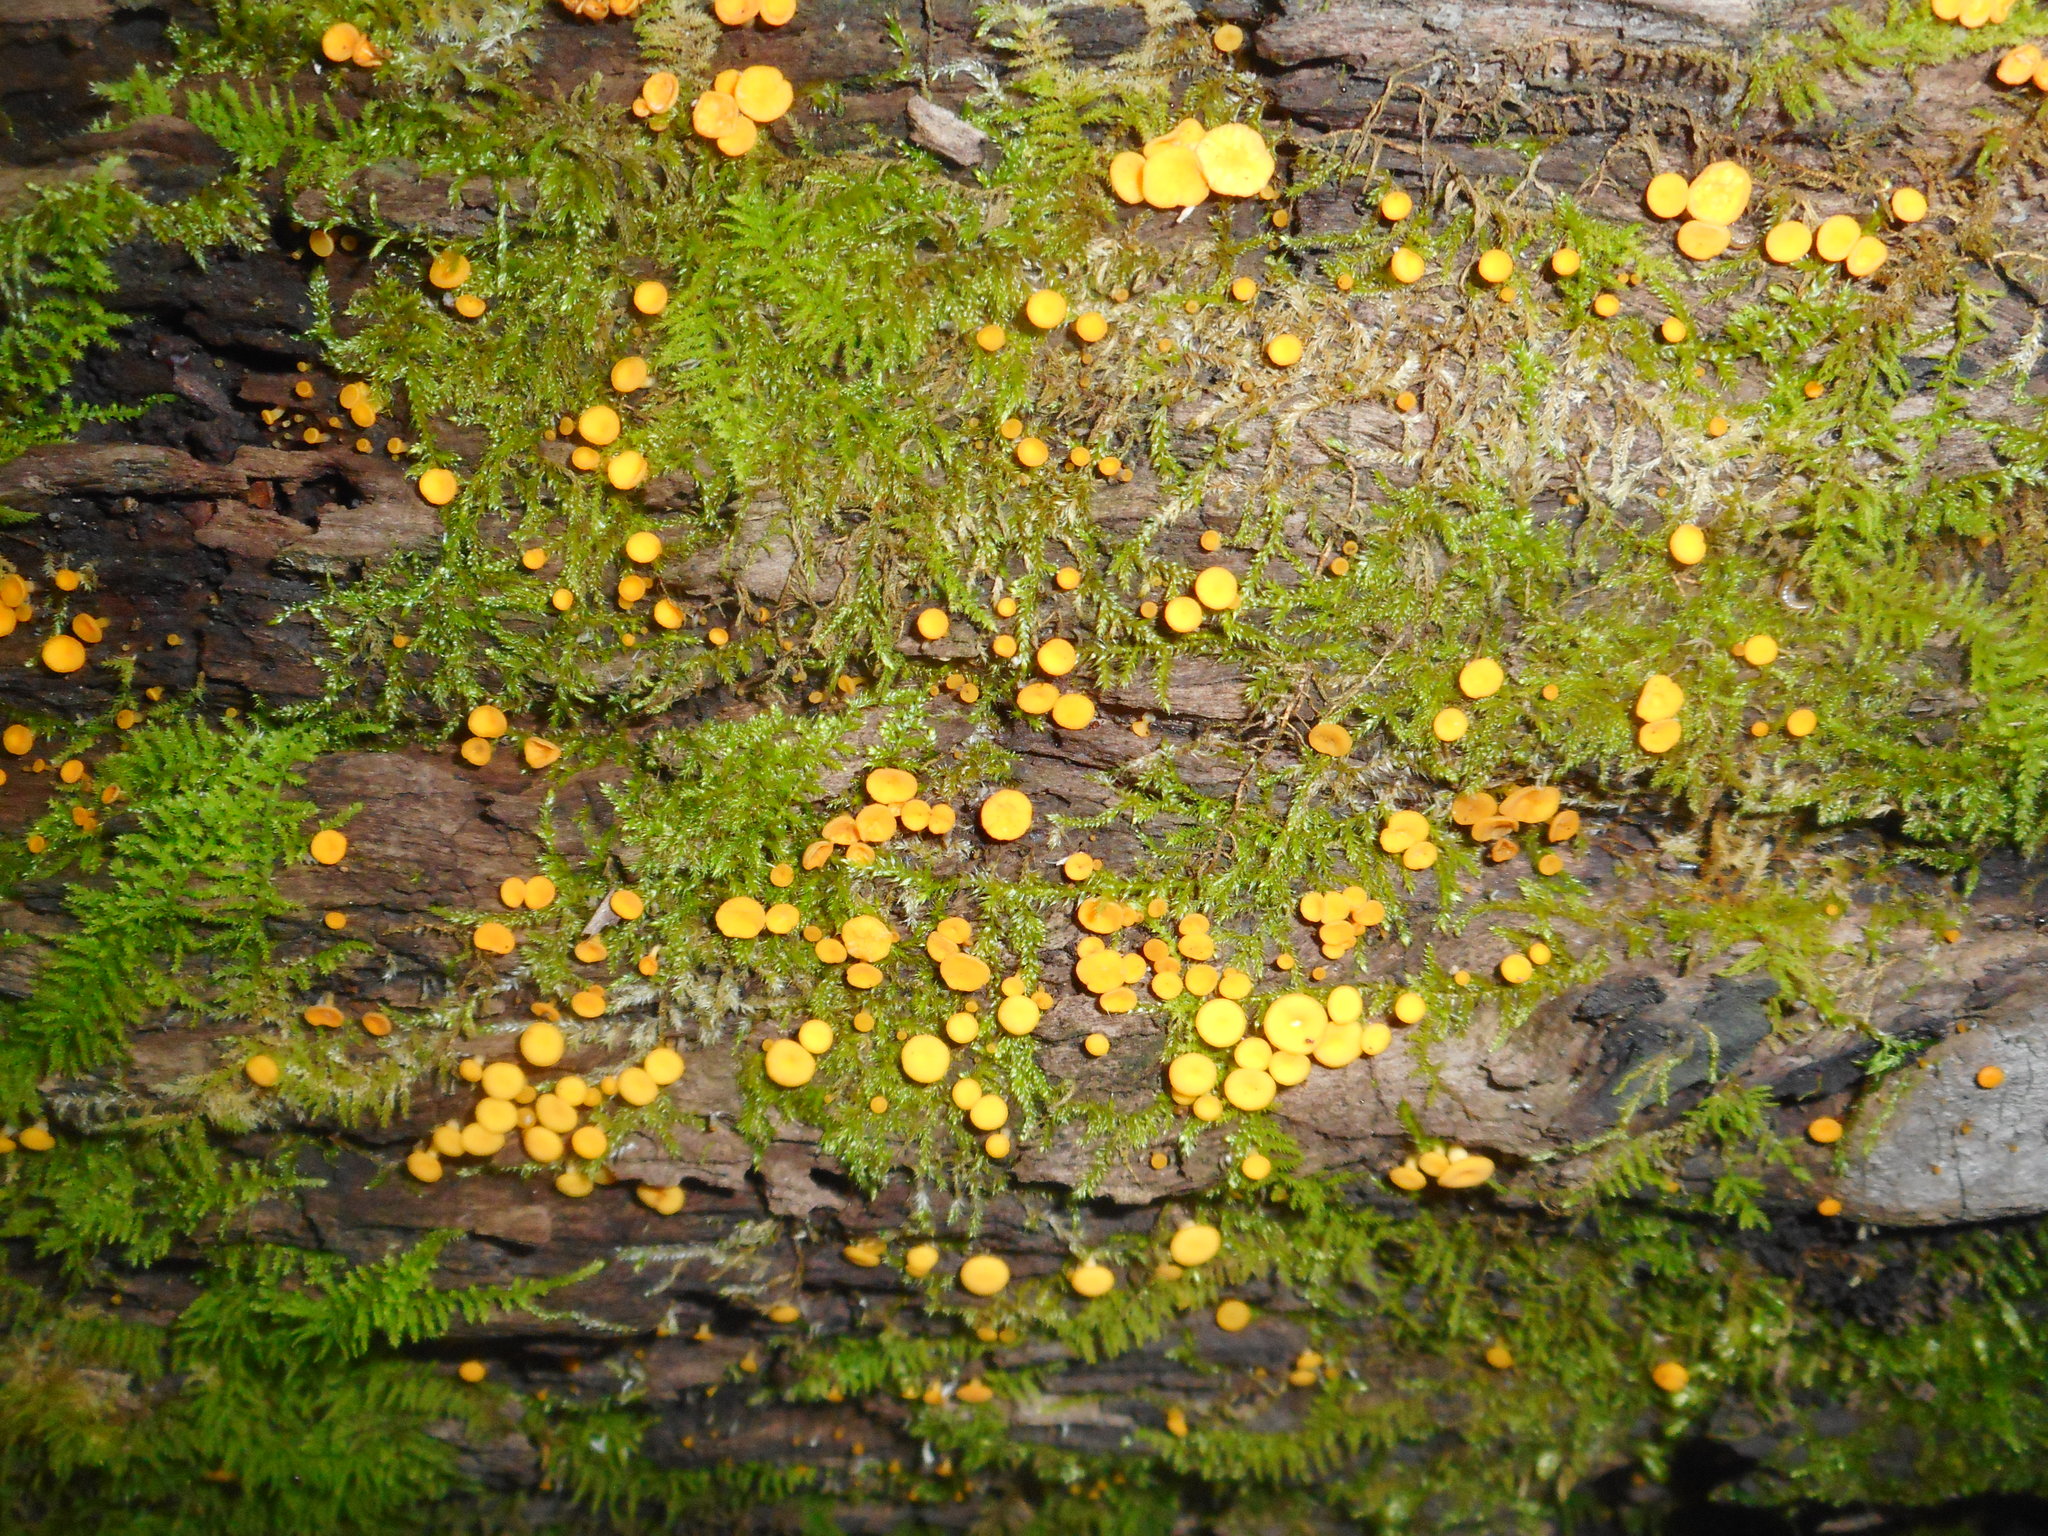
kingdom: Fungi
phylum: Ascomycota
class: Leotiomycetes
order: Helotiales
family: Pezizellaceae
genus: Calycina
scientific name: Calycina citrina
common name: Yellow fairy cups
